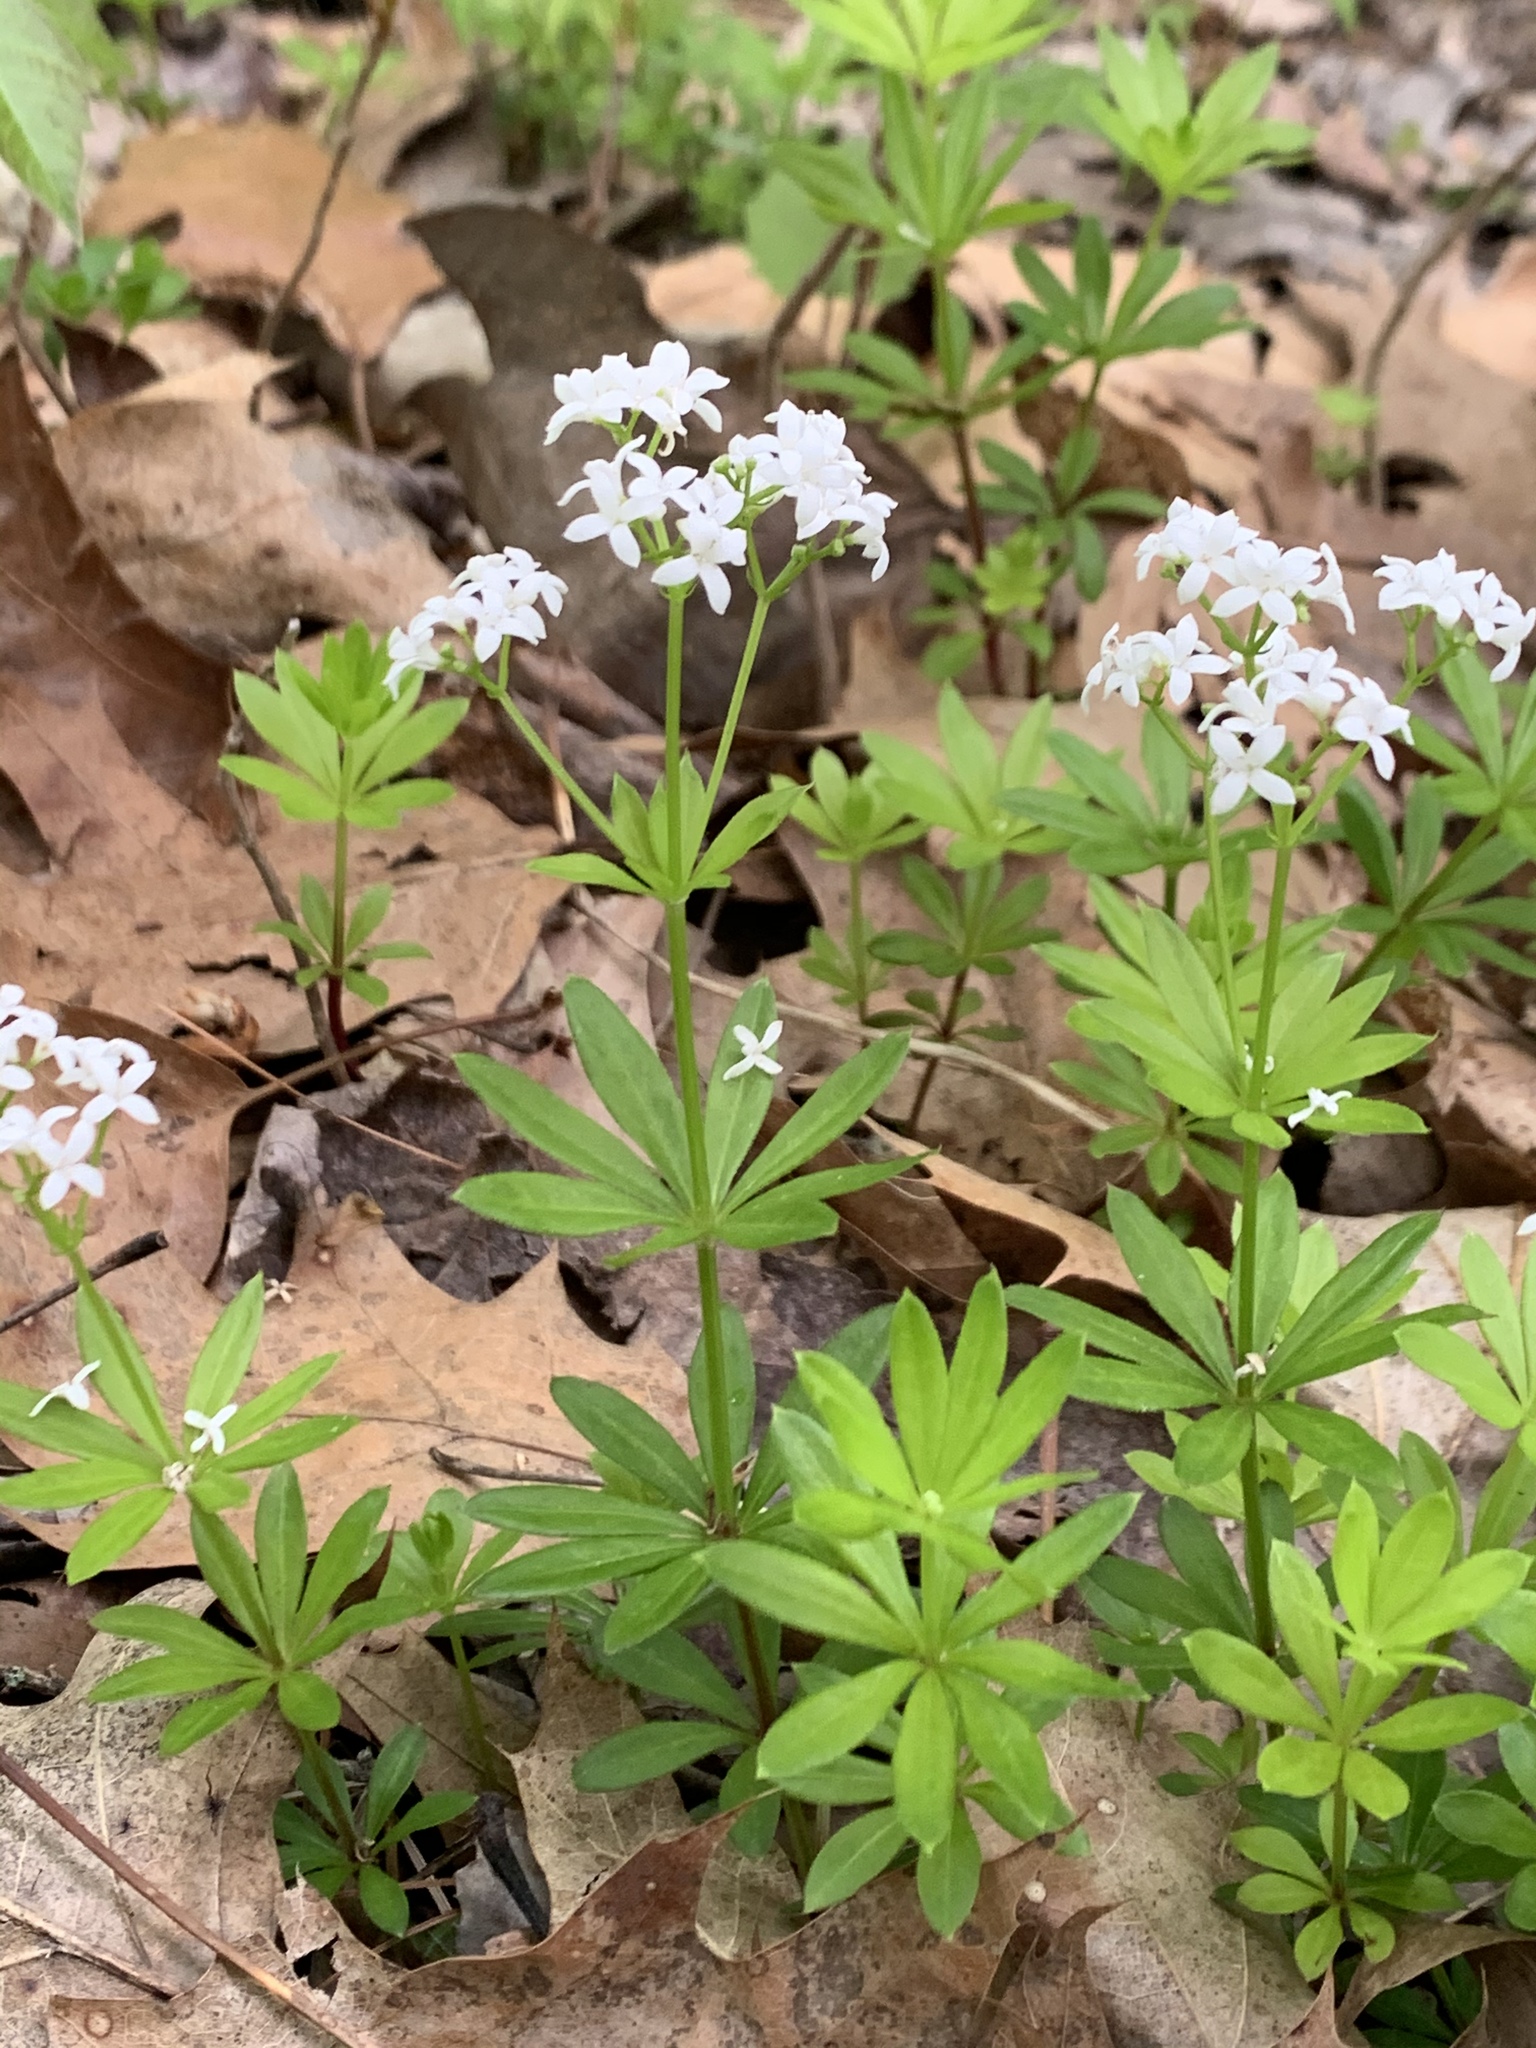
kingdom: Plantae
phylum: Tracheophyta
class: Magnoliopsida
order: Gentianales
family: Rubiaceae
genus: Galium
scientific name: Galium odoratum
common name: Sweet woodruff
